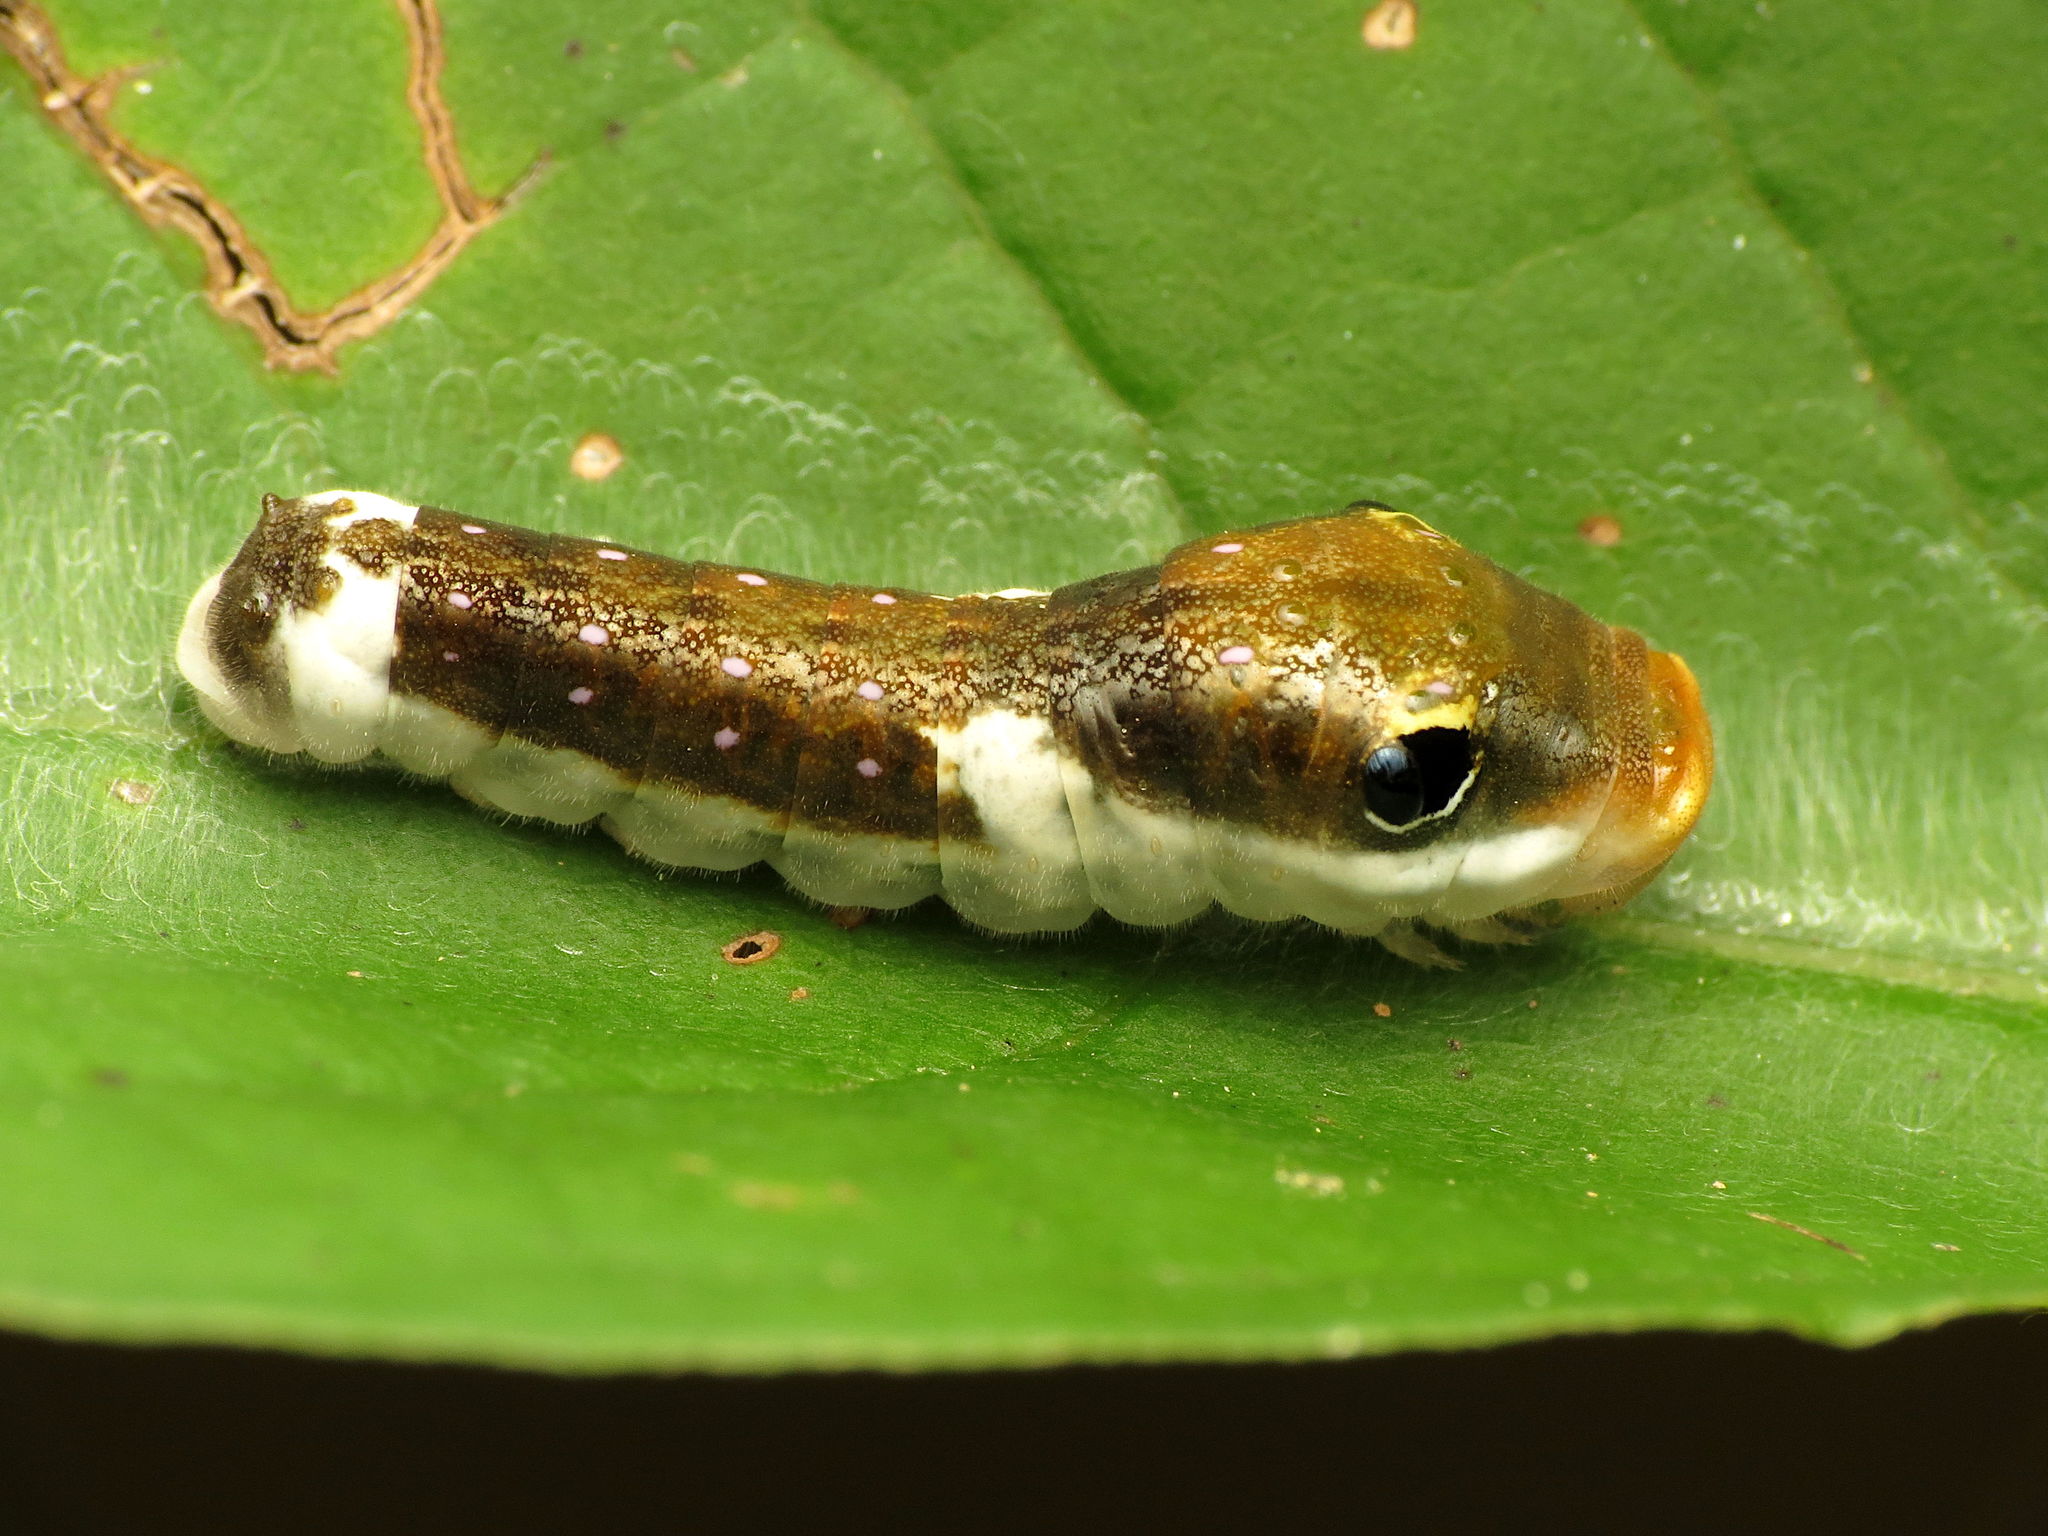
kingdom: Animalia
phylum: Arthropoda
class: Insecta
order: Lepidoptera
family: Papilionidae
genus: Papilio
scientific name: Papilio troilus
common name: Spicebush swallowtail
